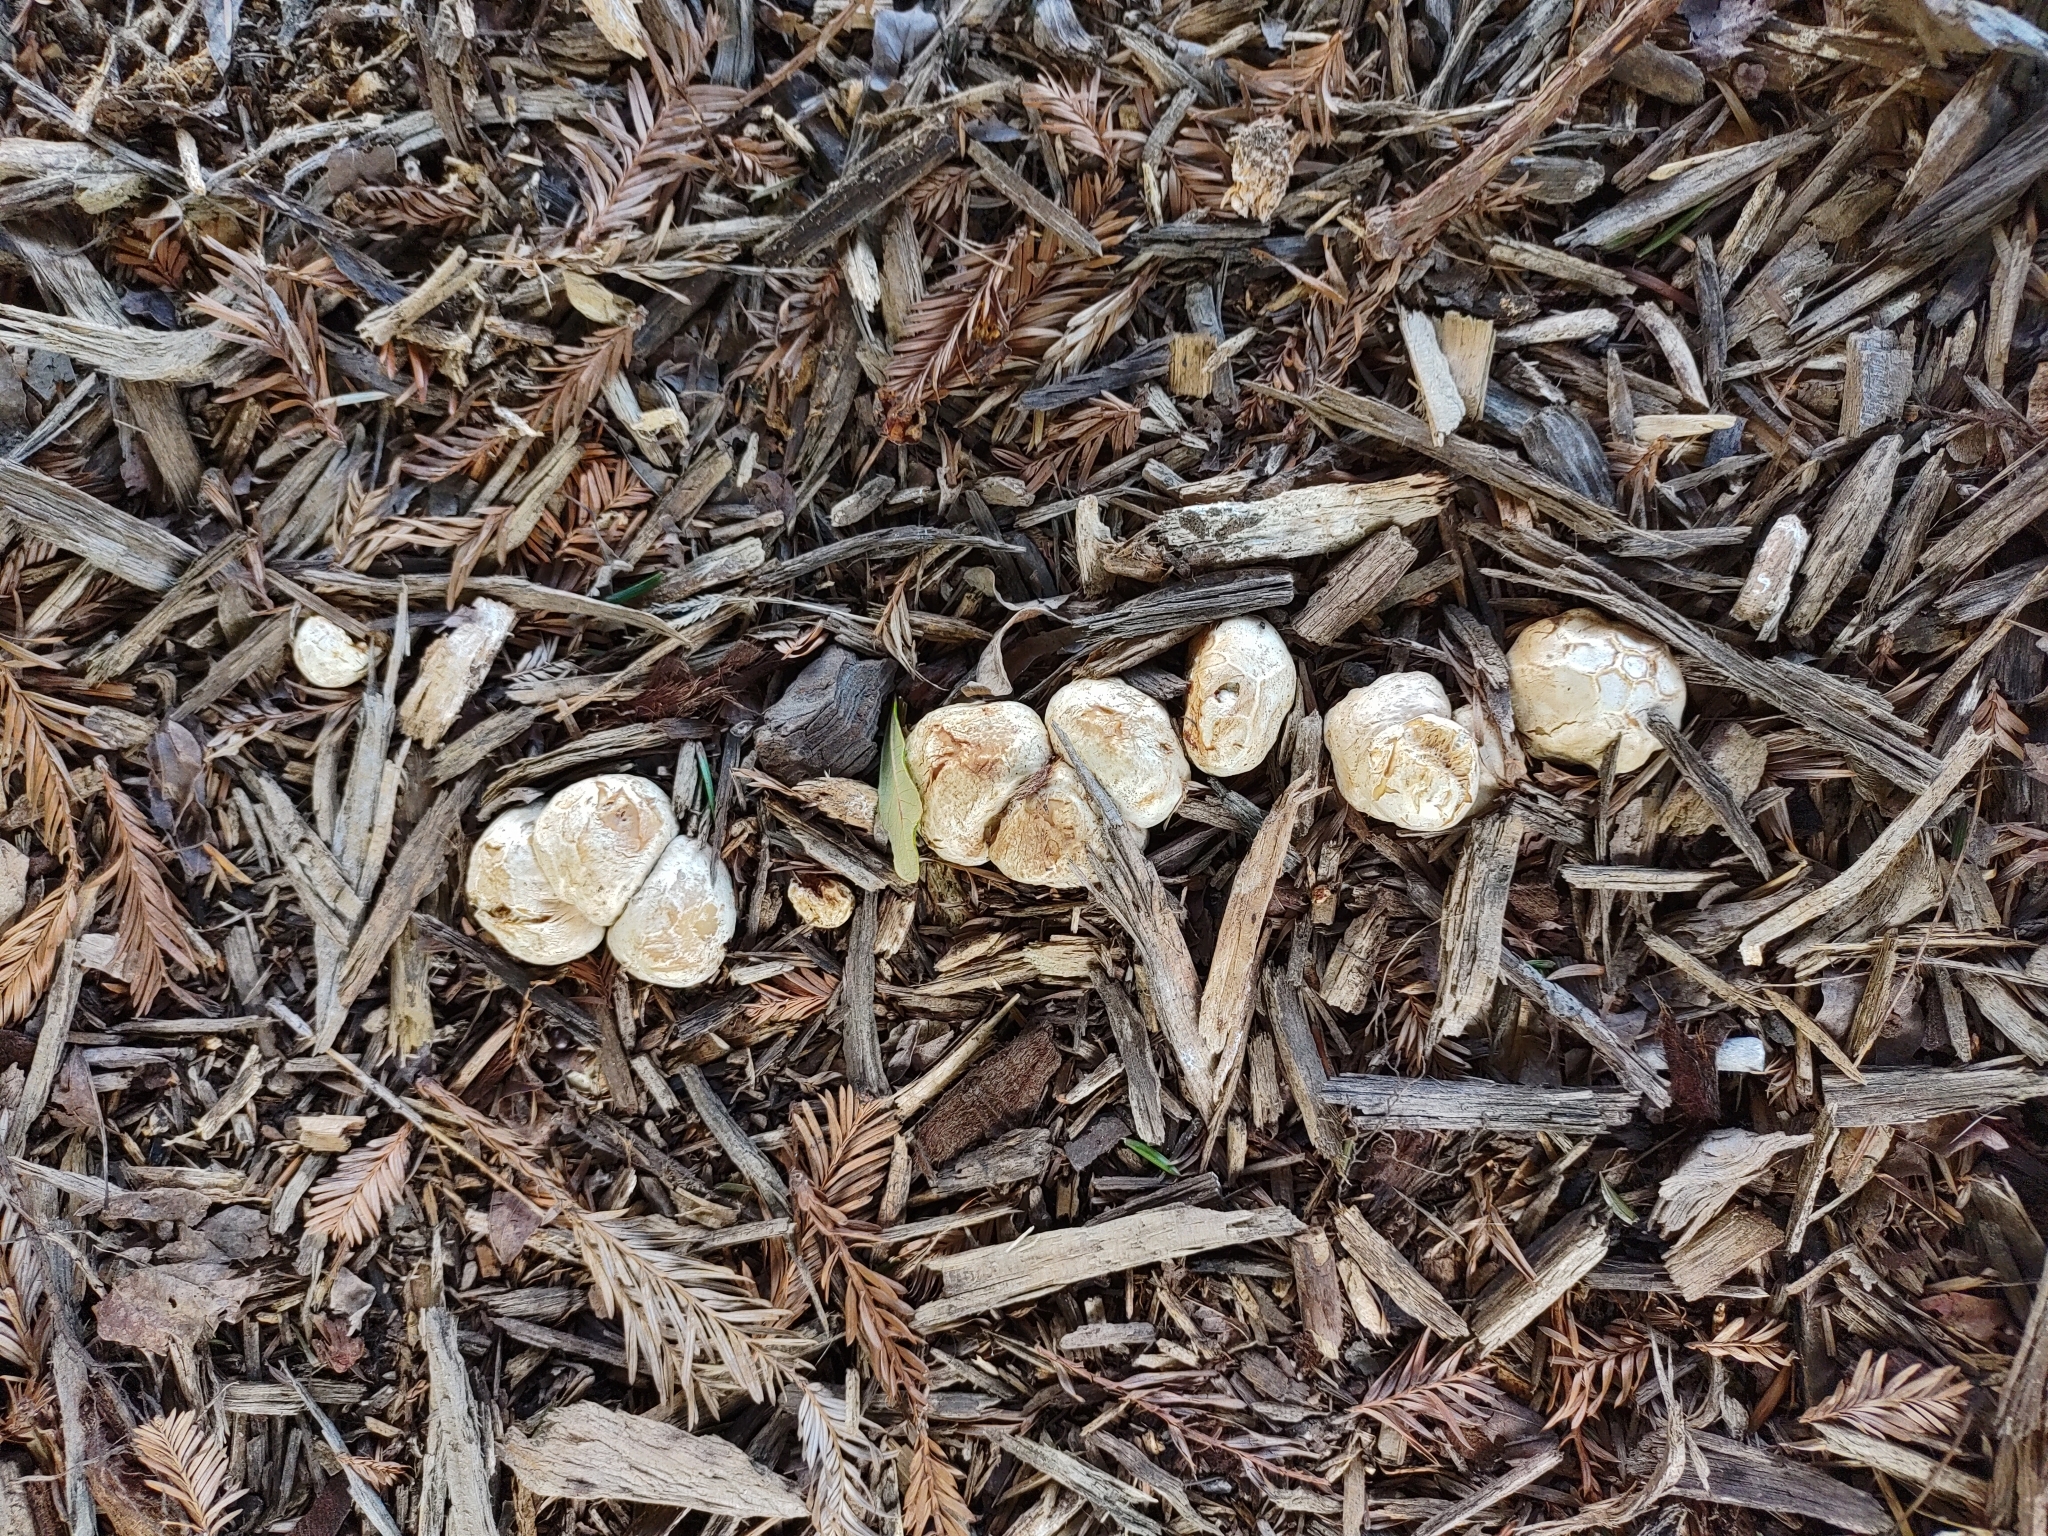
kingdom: Fungi
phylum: Basidiomycota
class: Agaricomycetes
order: Phallales
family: Phallaceae
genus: Clathrus
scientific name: Clathrus ruber
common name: Red cage
